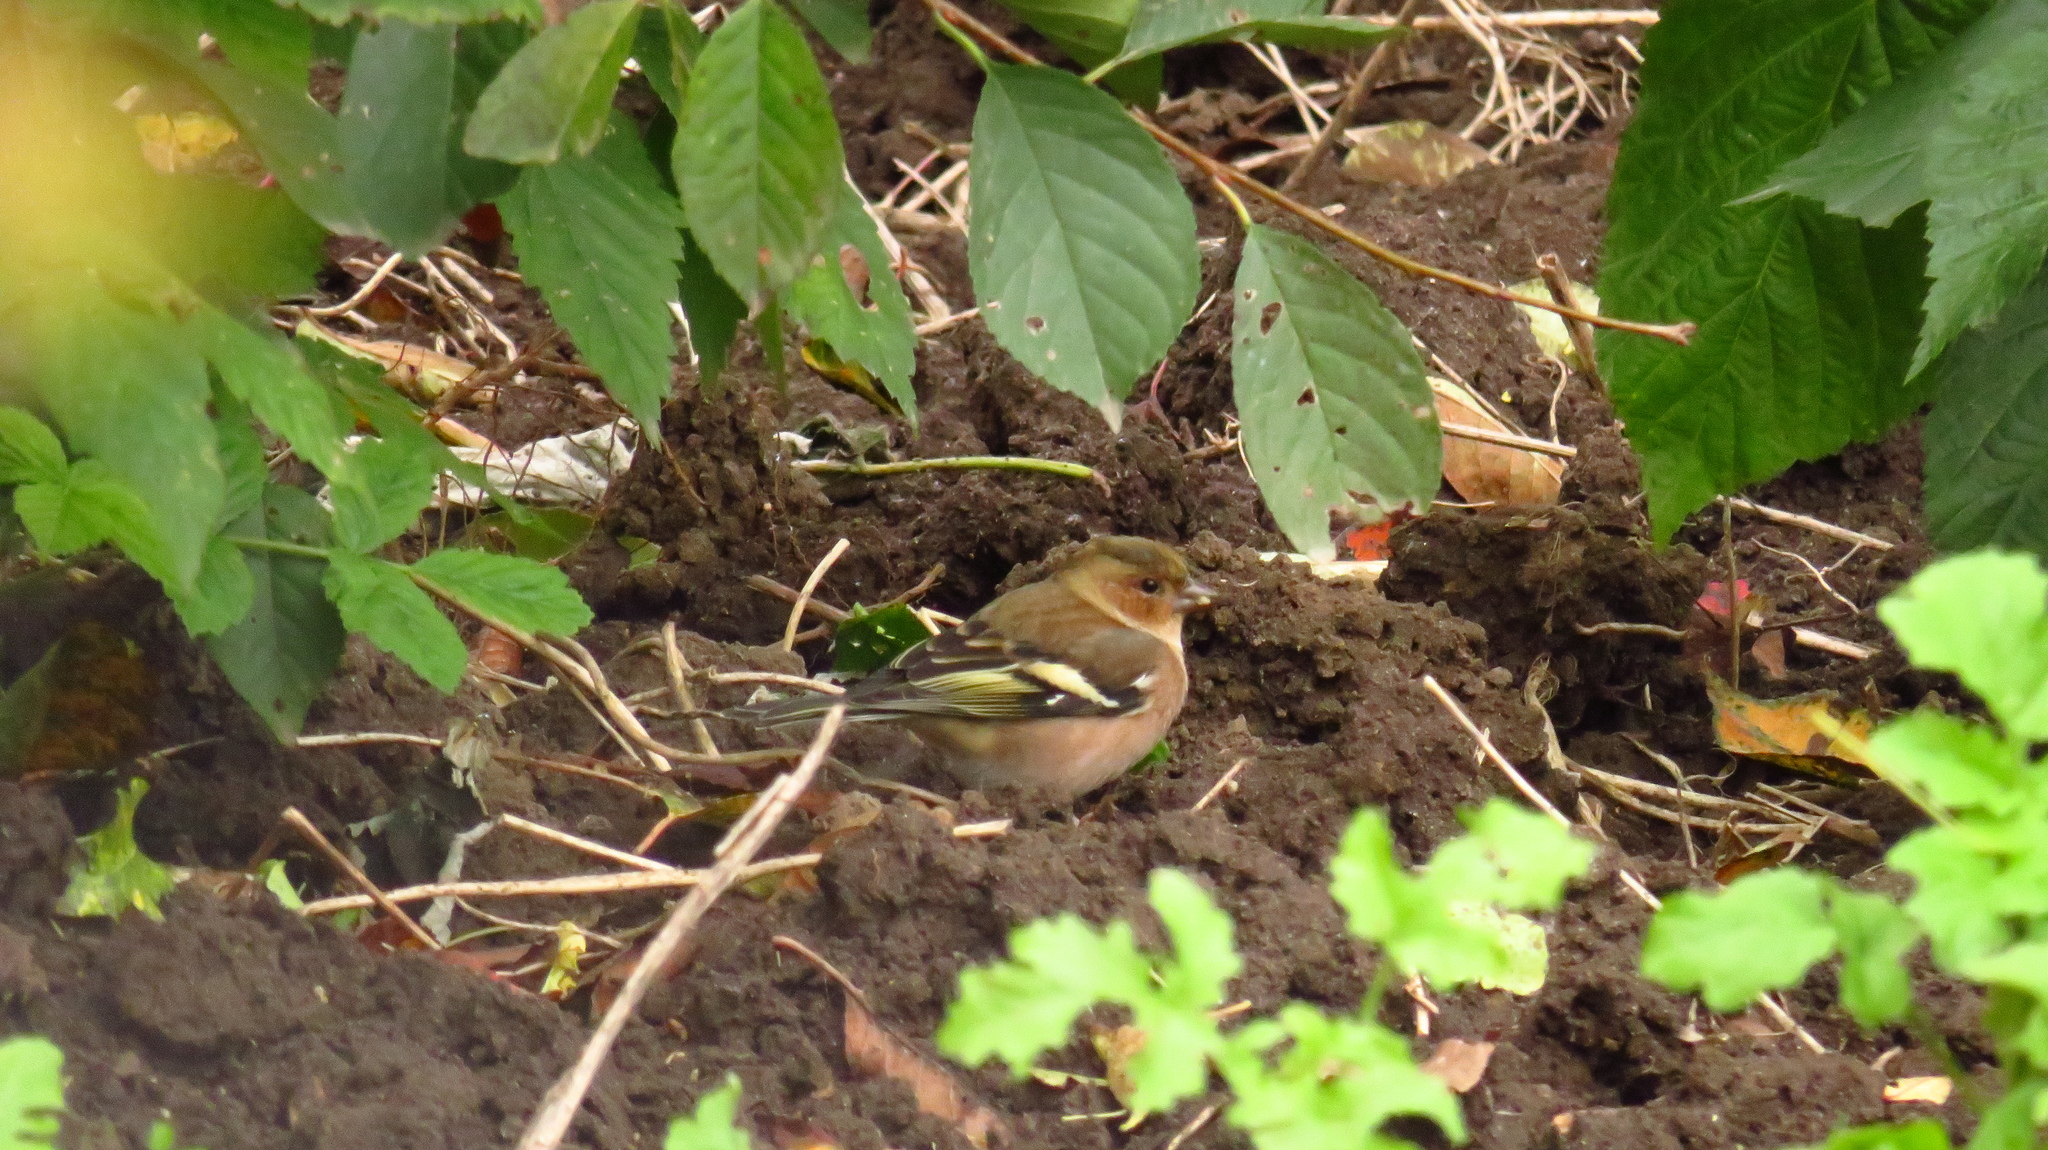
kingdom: Animalia
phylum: Chordata
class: Aves
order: Passeriformes
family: Fringillidae
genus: Fringilla
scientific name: Fringilla coelebs
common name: Common chaffinch
